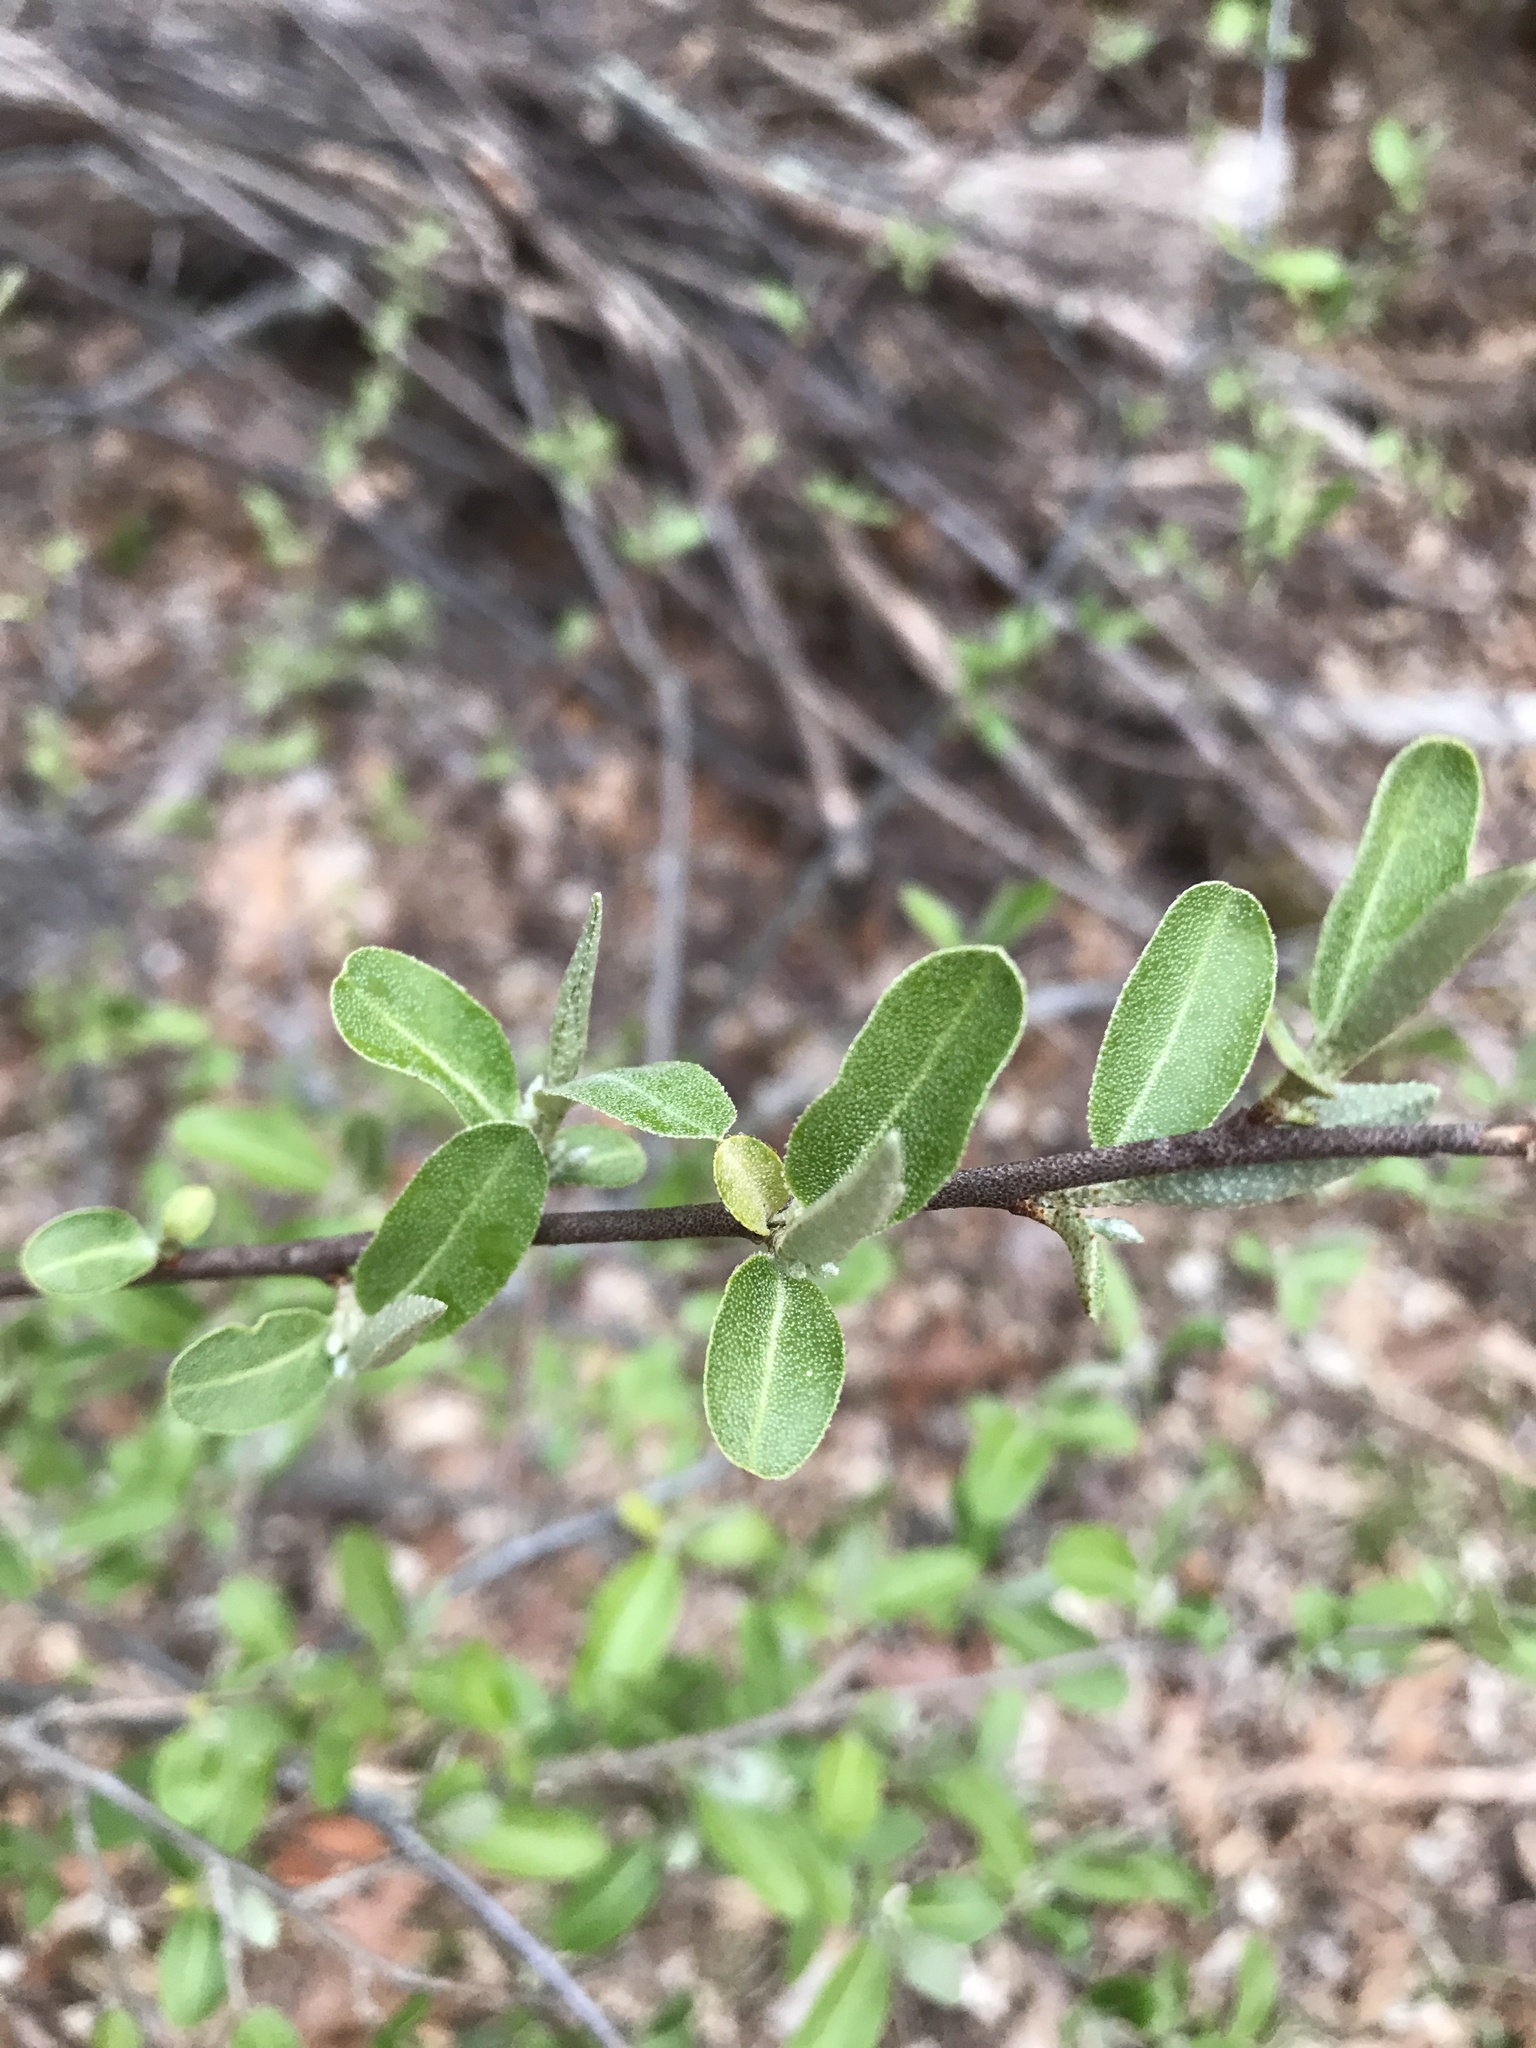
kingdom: Plantae
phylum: Tracheophyta
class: Magnoliopsida
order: Rosales
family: Elaeagnaceae
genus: Elaeagnus
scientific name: Elaeagnus umbellata
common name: Autumn olive
